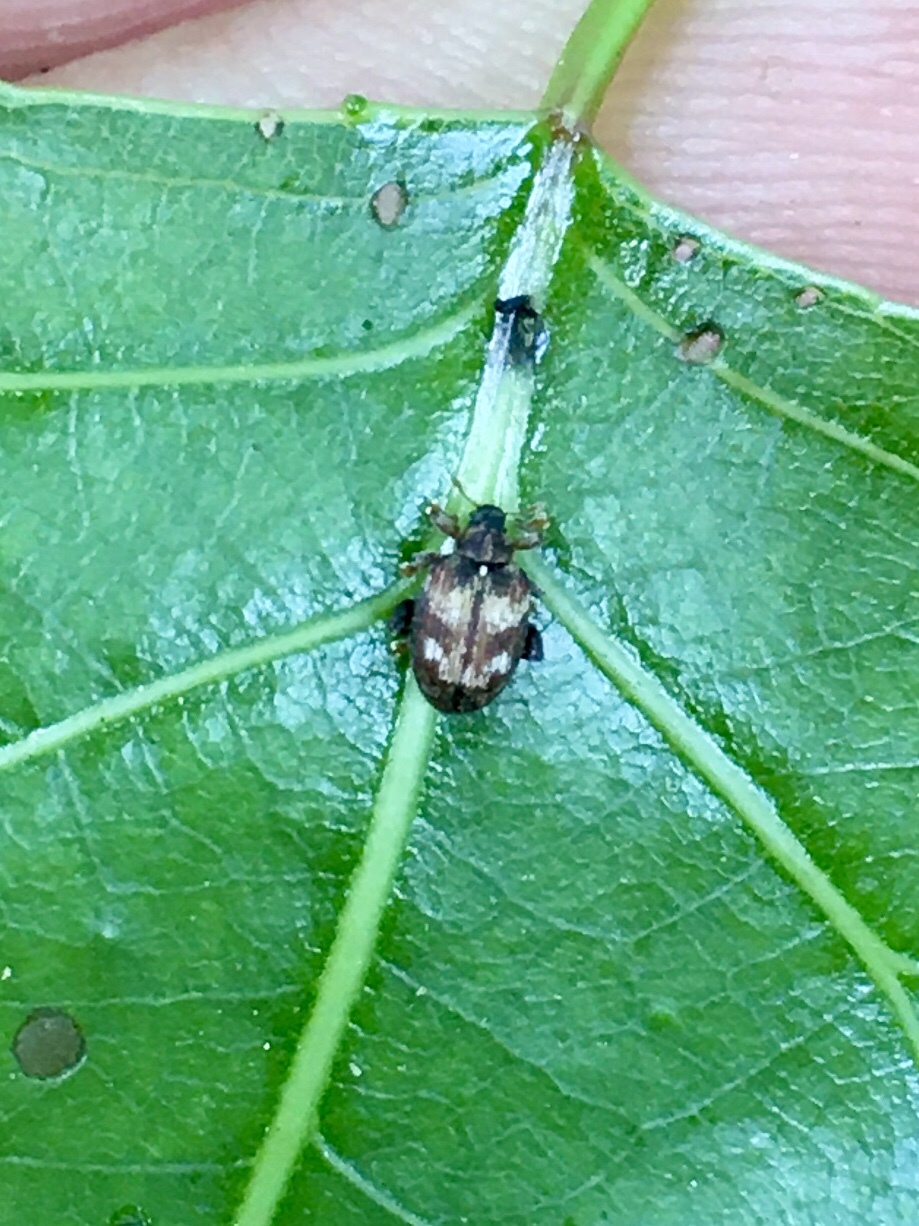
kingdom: Animalia
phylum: Arthropoda
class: Insecta
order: Coleoptera
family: Curculionidae
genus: Tachyerges
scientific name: Tachyerges ephippiatus
